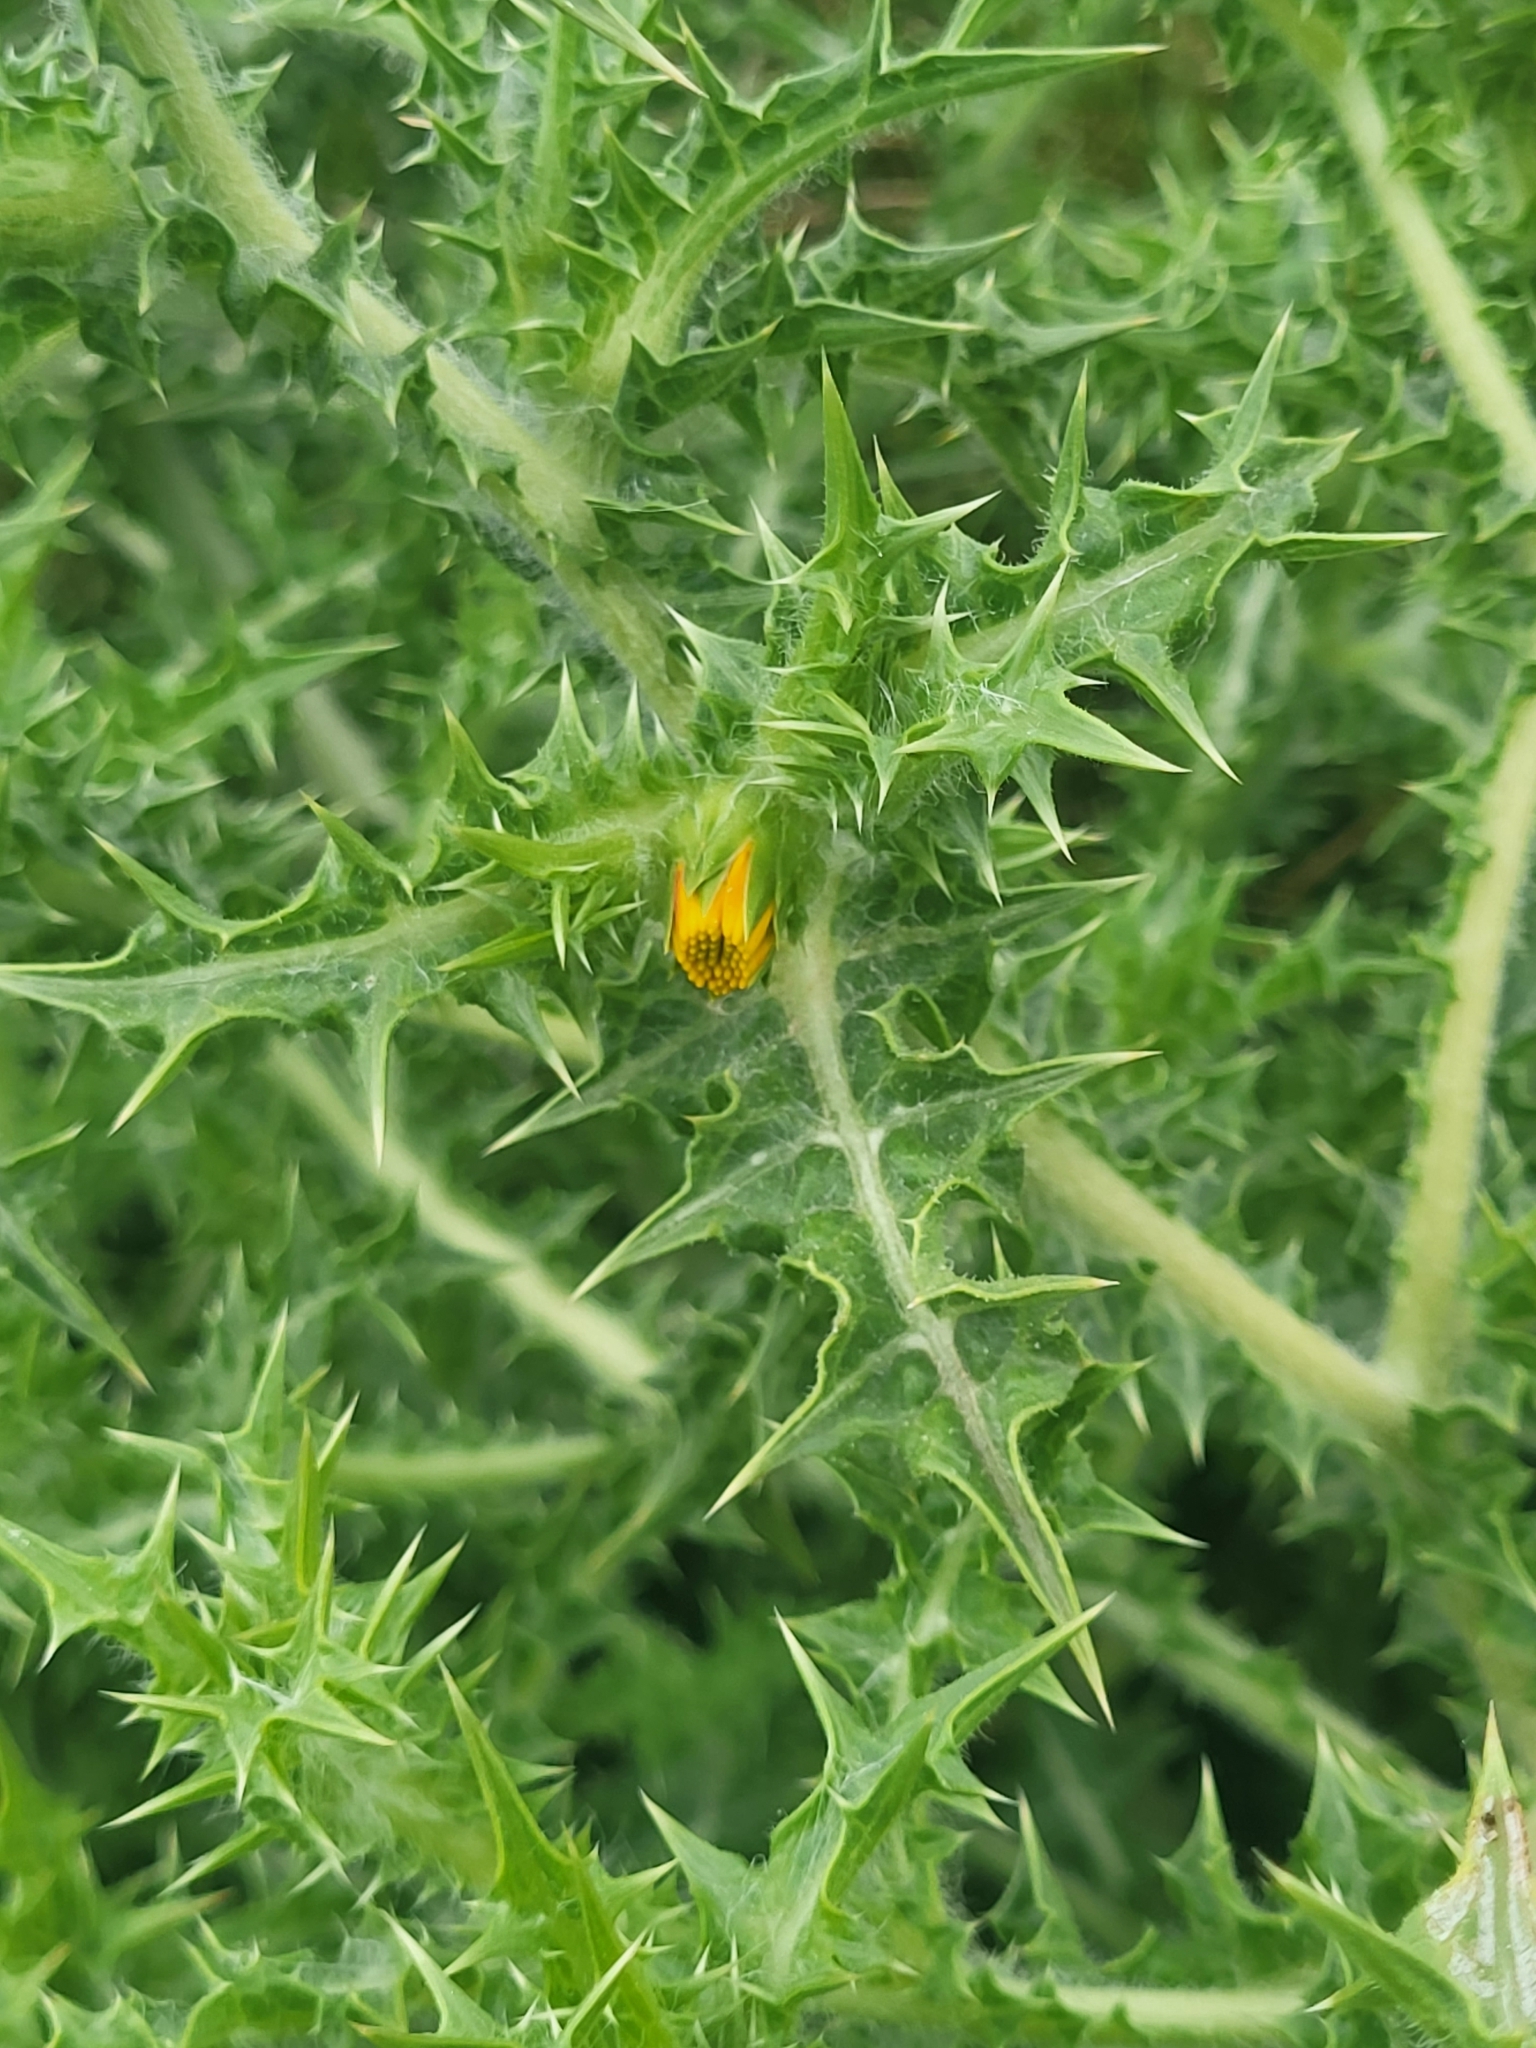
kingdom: Plantae
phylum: Tracheophyta
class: Magnoliopsida
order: Asterales
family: Asteraceae
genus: Scolymus
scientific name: Scolymus hispanicus
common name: Golden thistle
